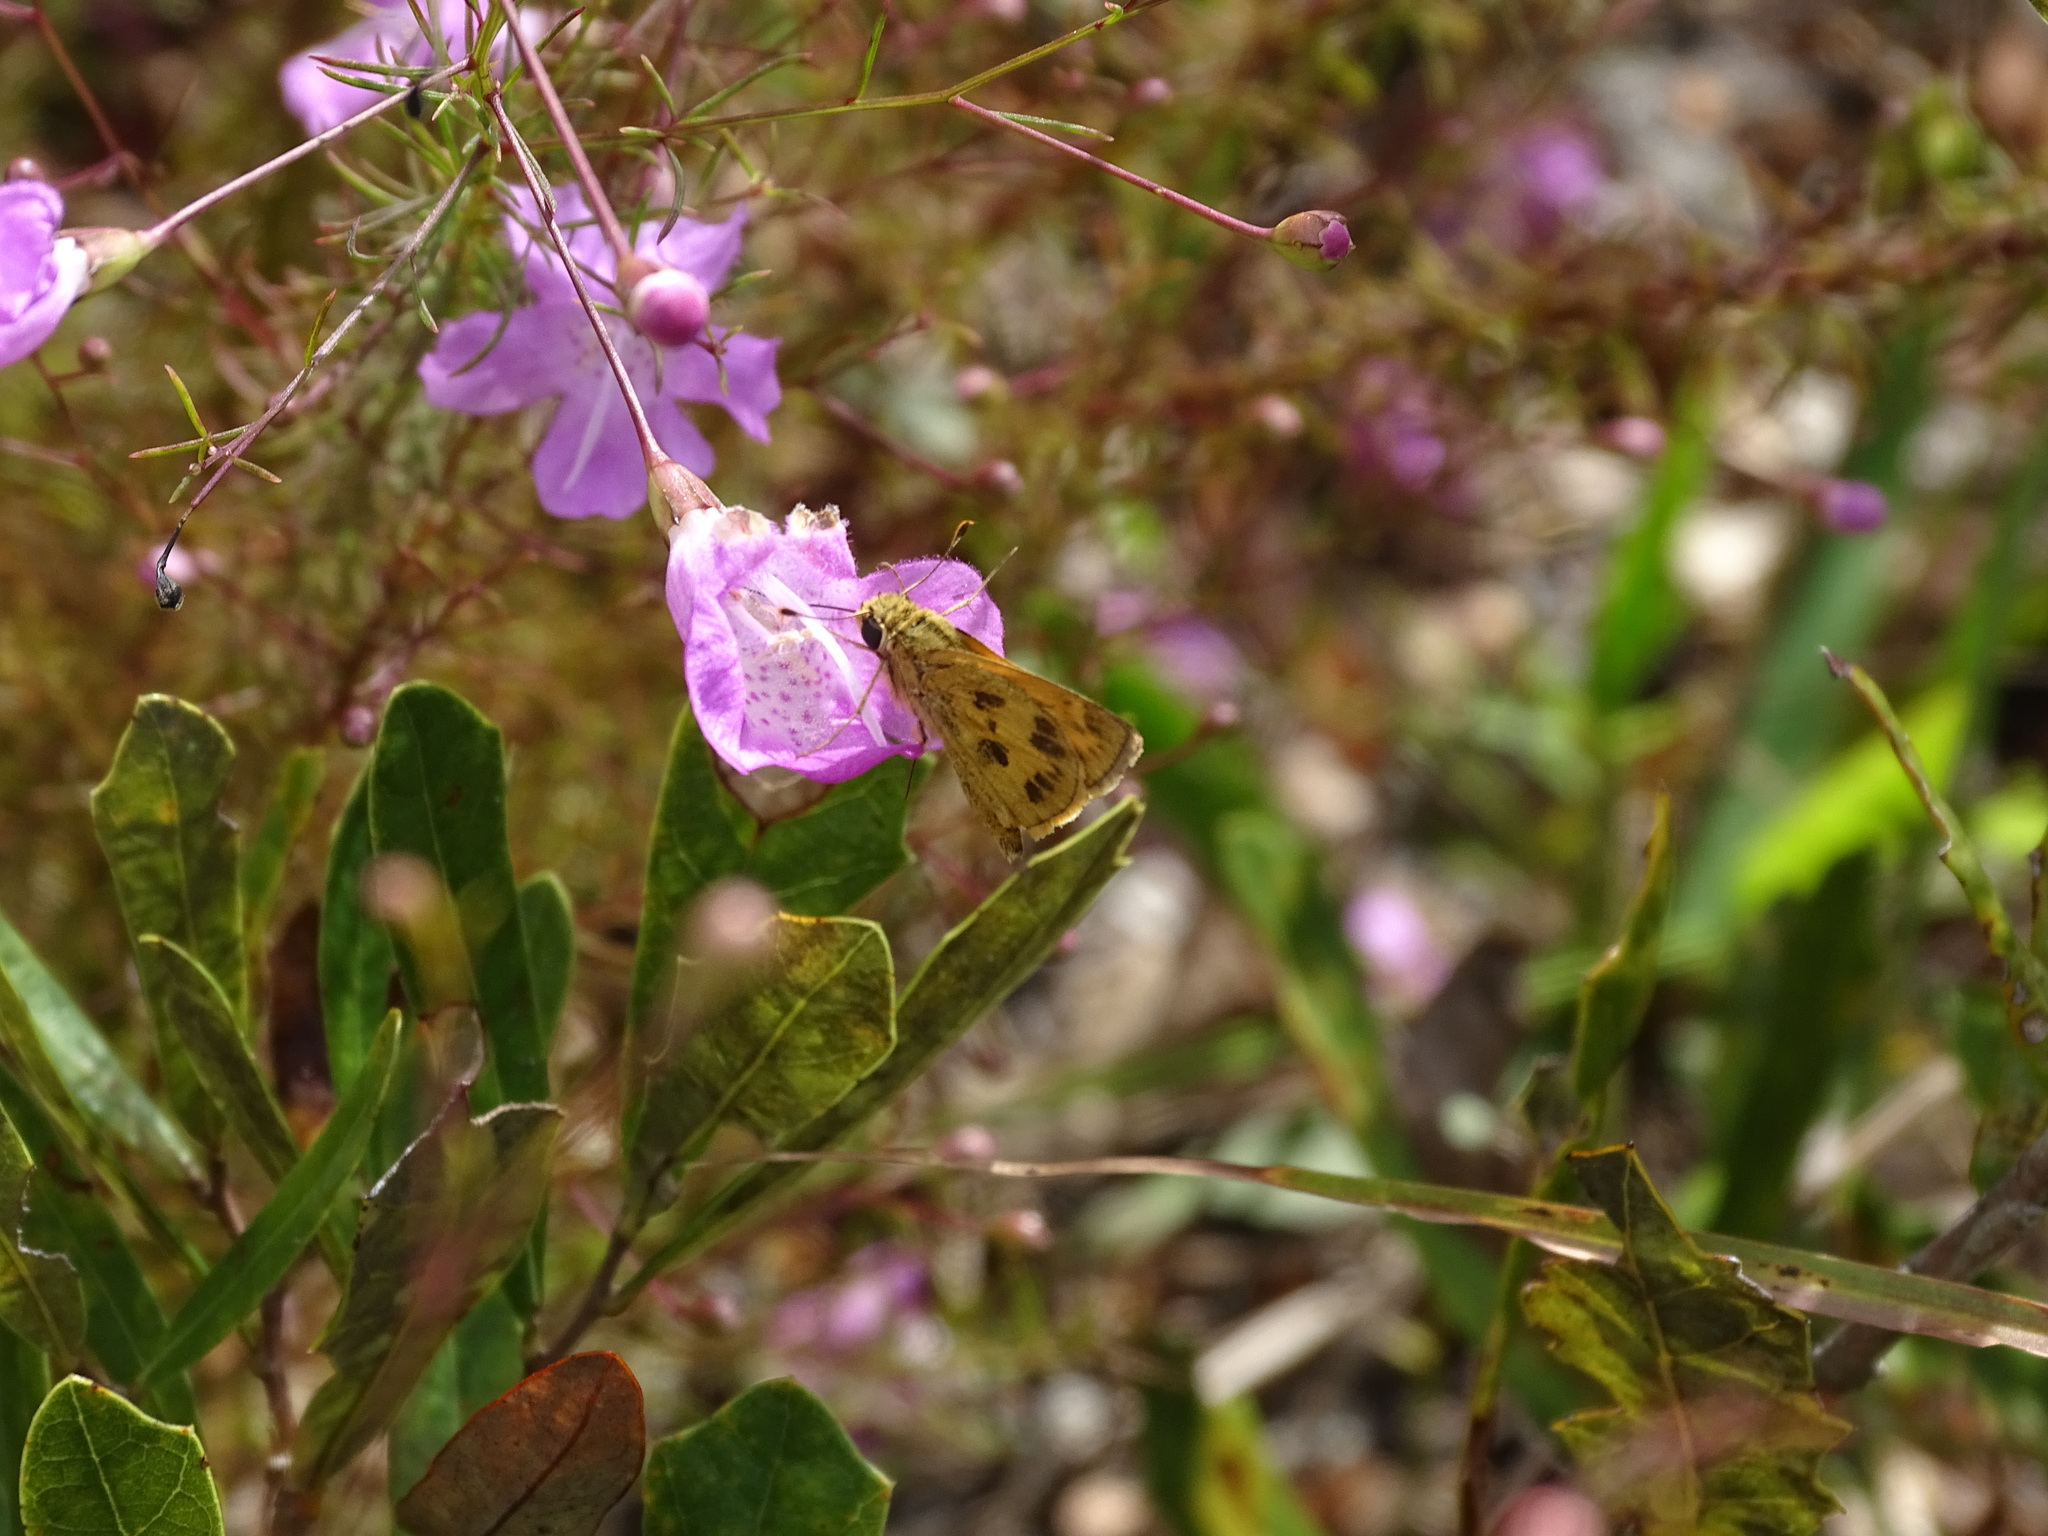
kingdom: Animalia
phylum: Arthropoda
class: Insecta
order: Lepidoptera
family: Hesperiidae
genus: Polites
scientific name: Polites vibex
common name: Whirlabout
